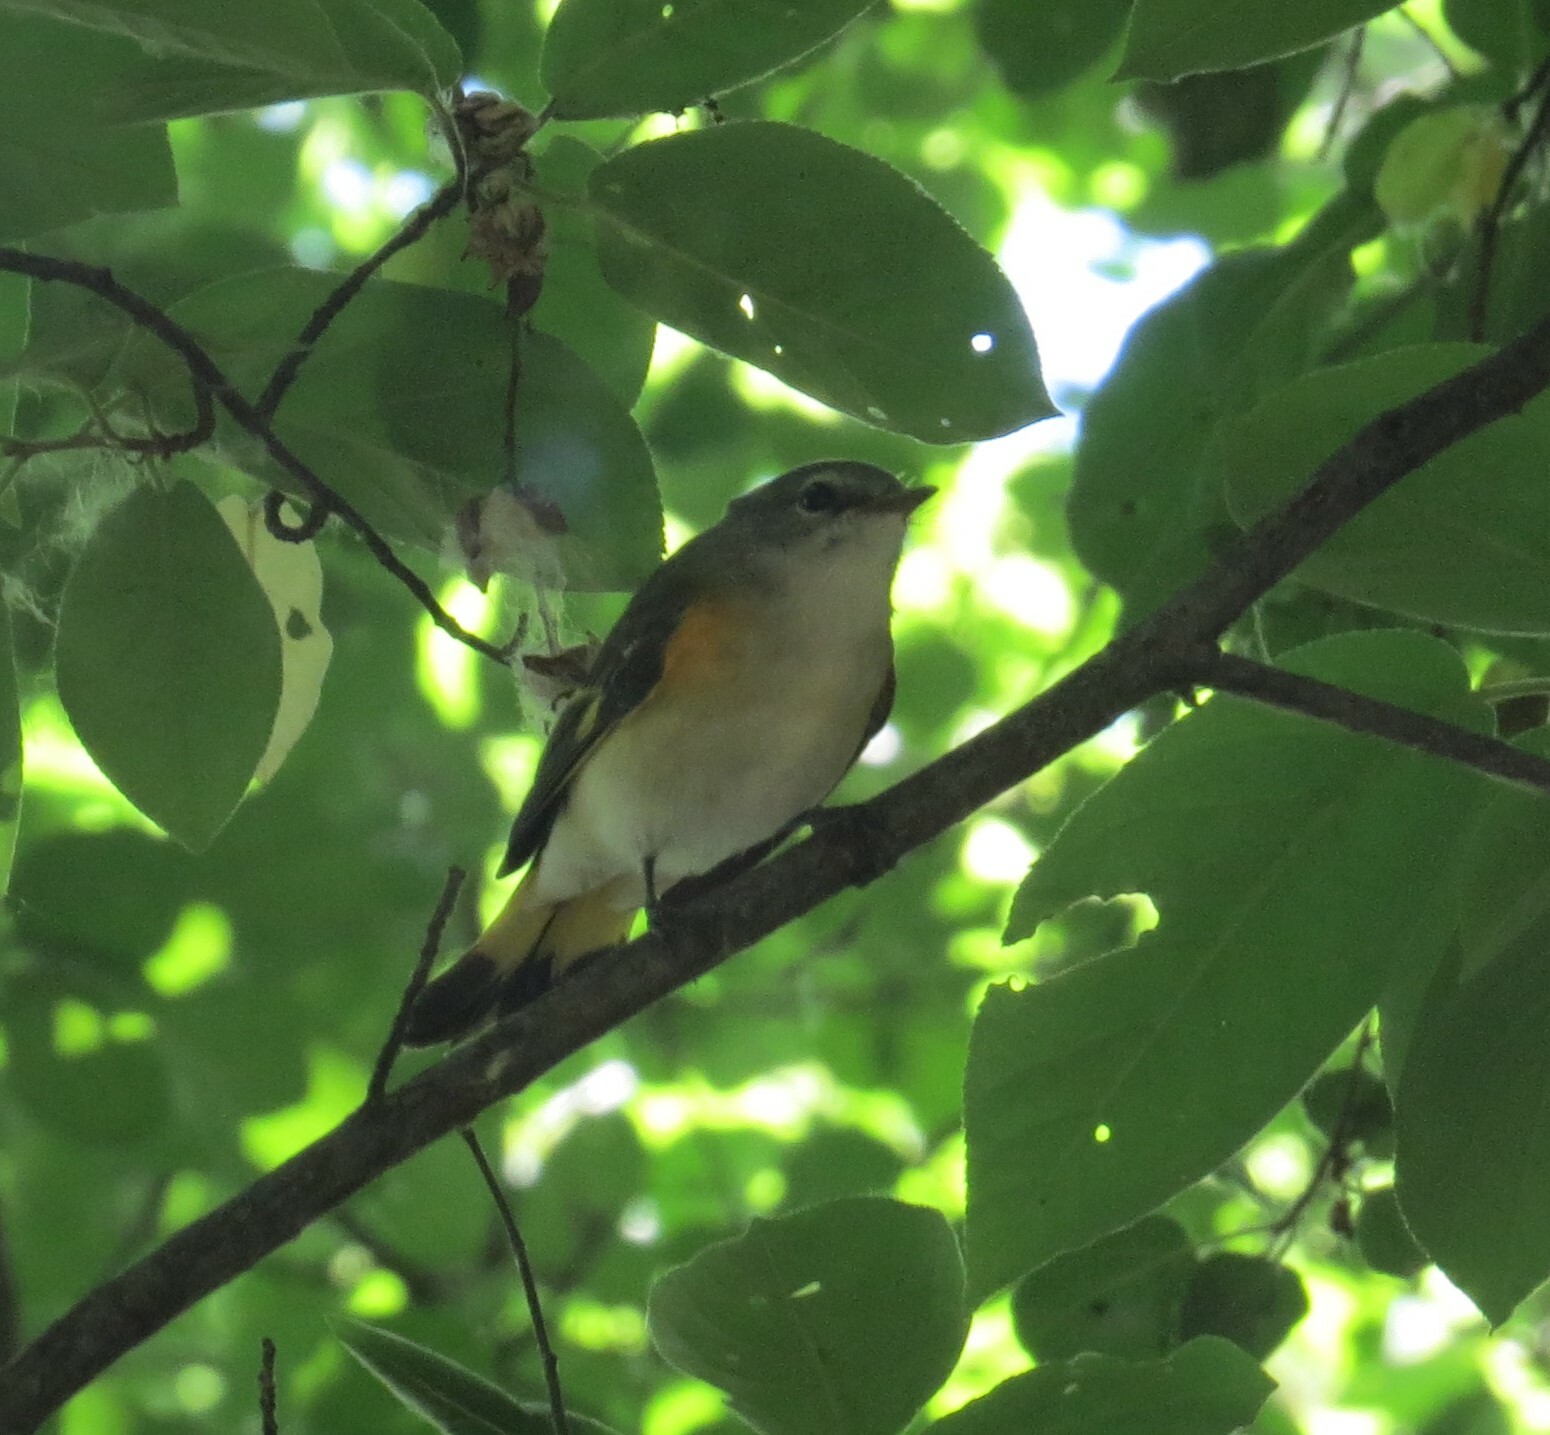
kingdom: Animalia
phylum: Chordata
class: Aves
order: Passeriformes
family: Parulidae
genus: Setophaga
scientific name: Setophaga ruticilla
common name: American redstart
